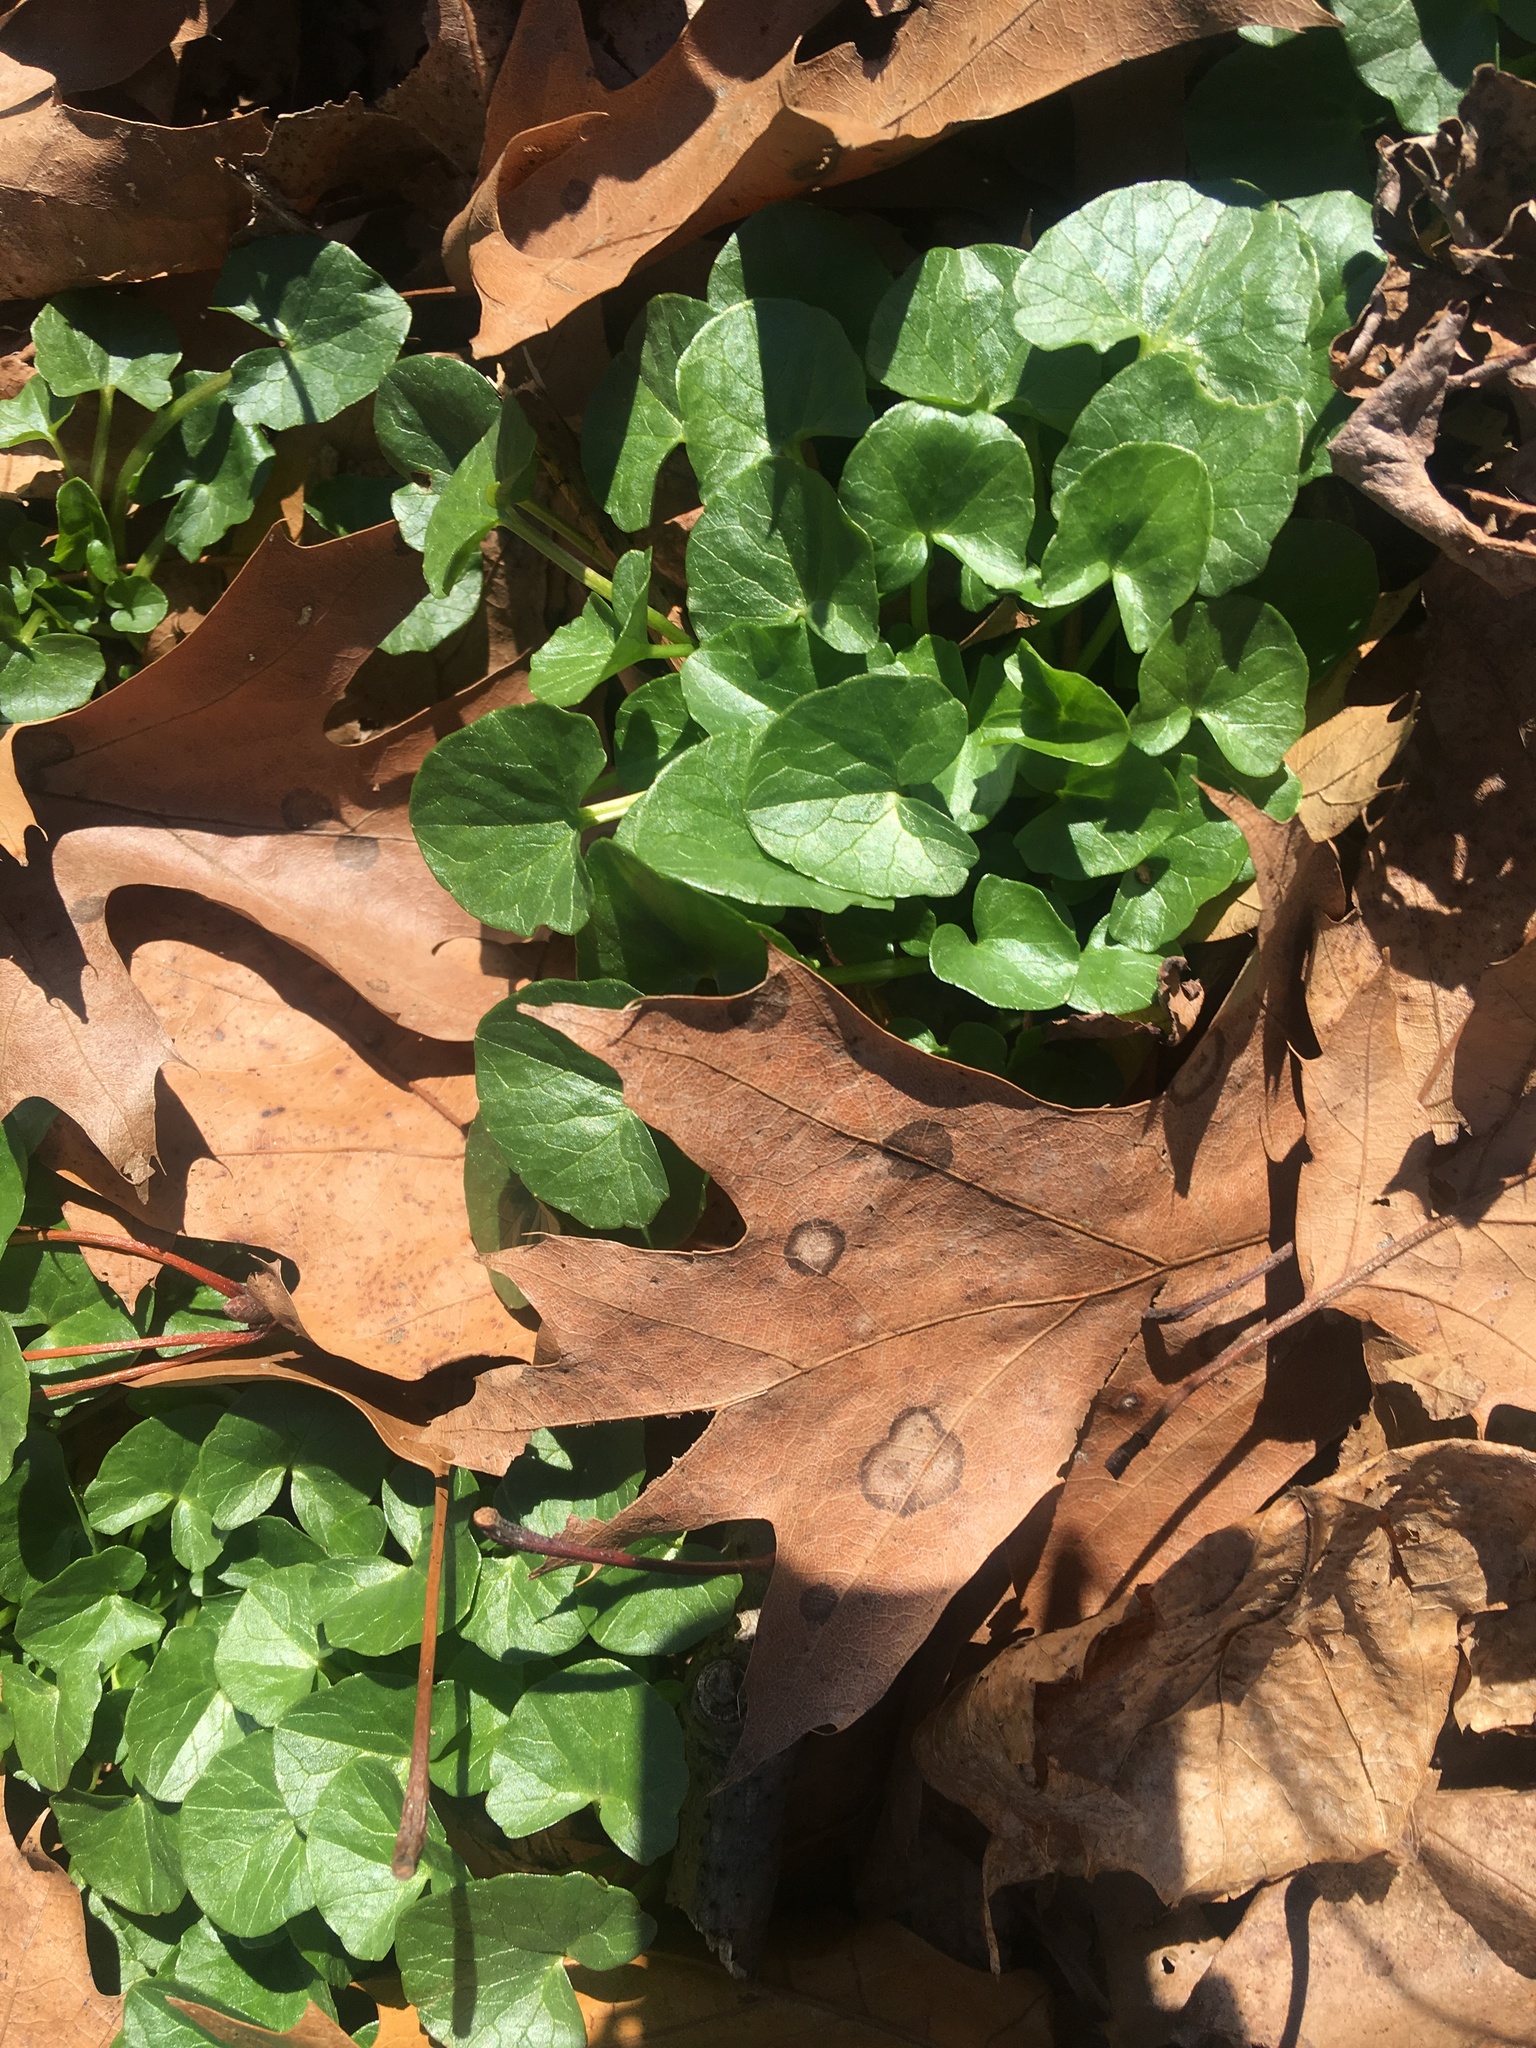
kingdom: Plantae
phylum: Tracheophyta
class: Magnoliopsida
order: Ranunculales
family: Ranunculaceae
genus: Ficaria
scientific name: Ficaria verna
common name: Lesser celandine
